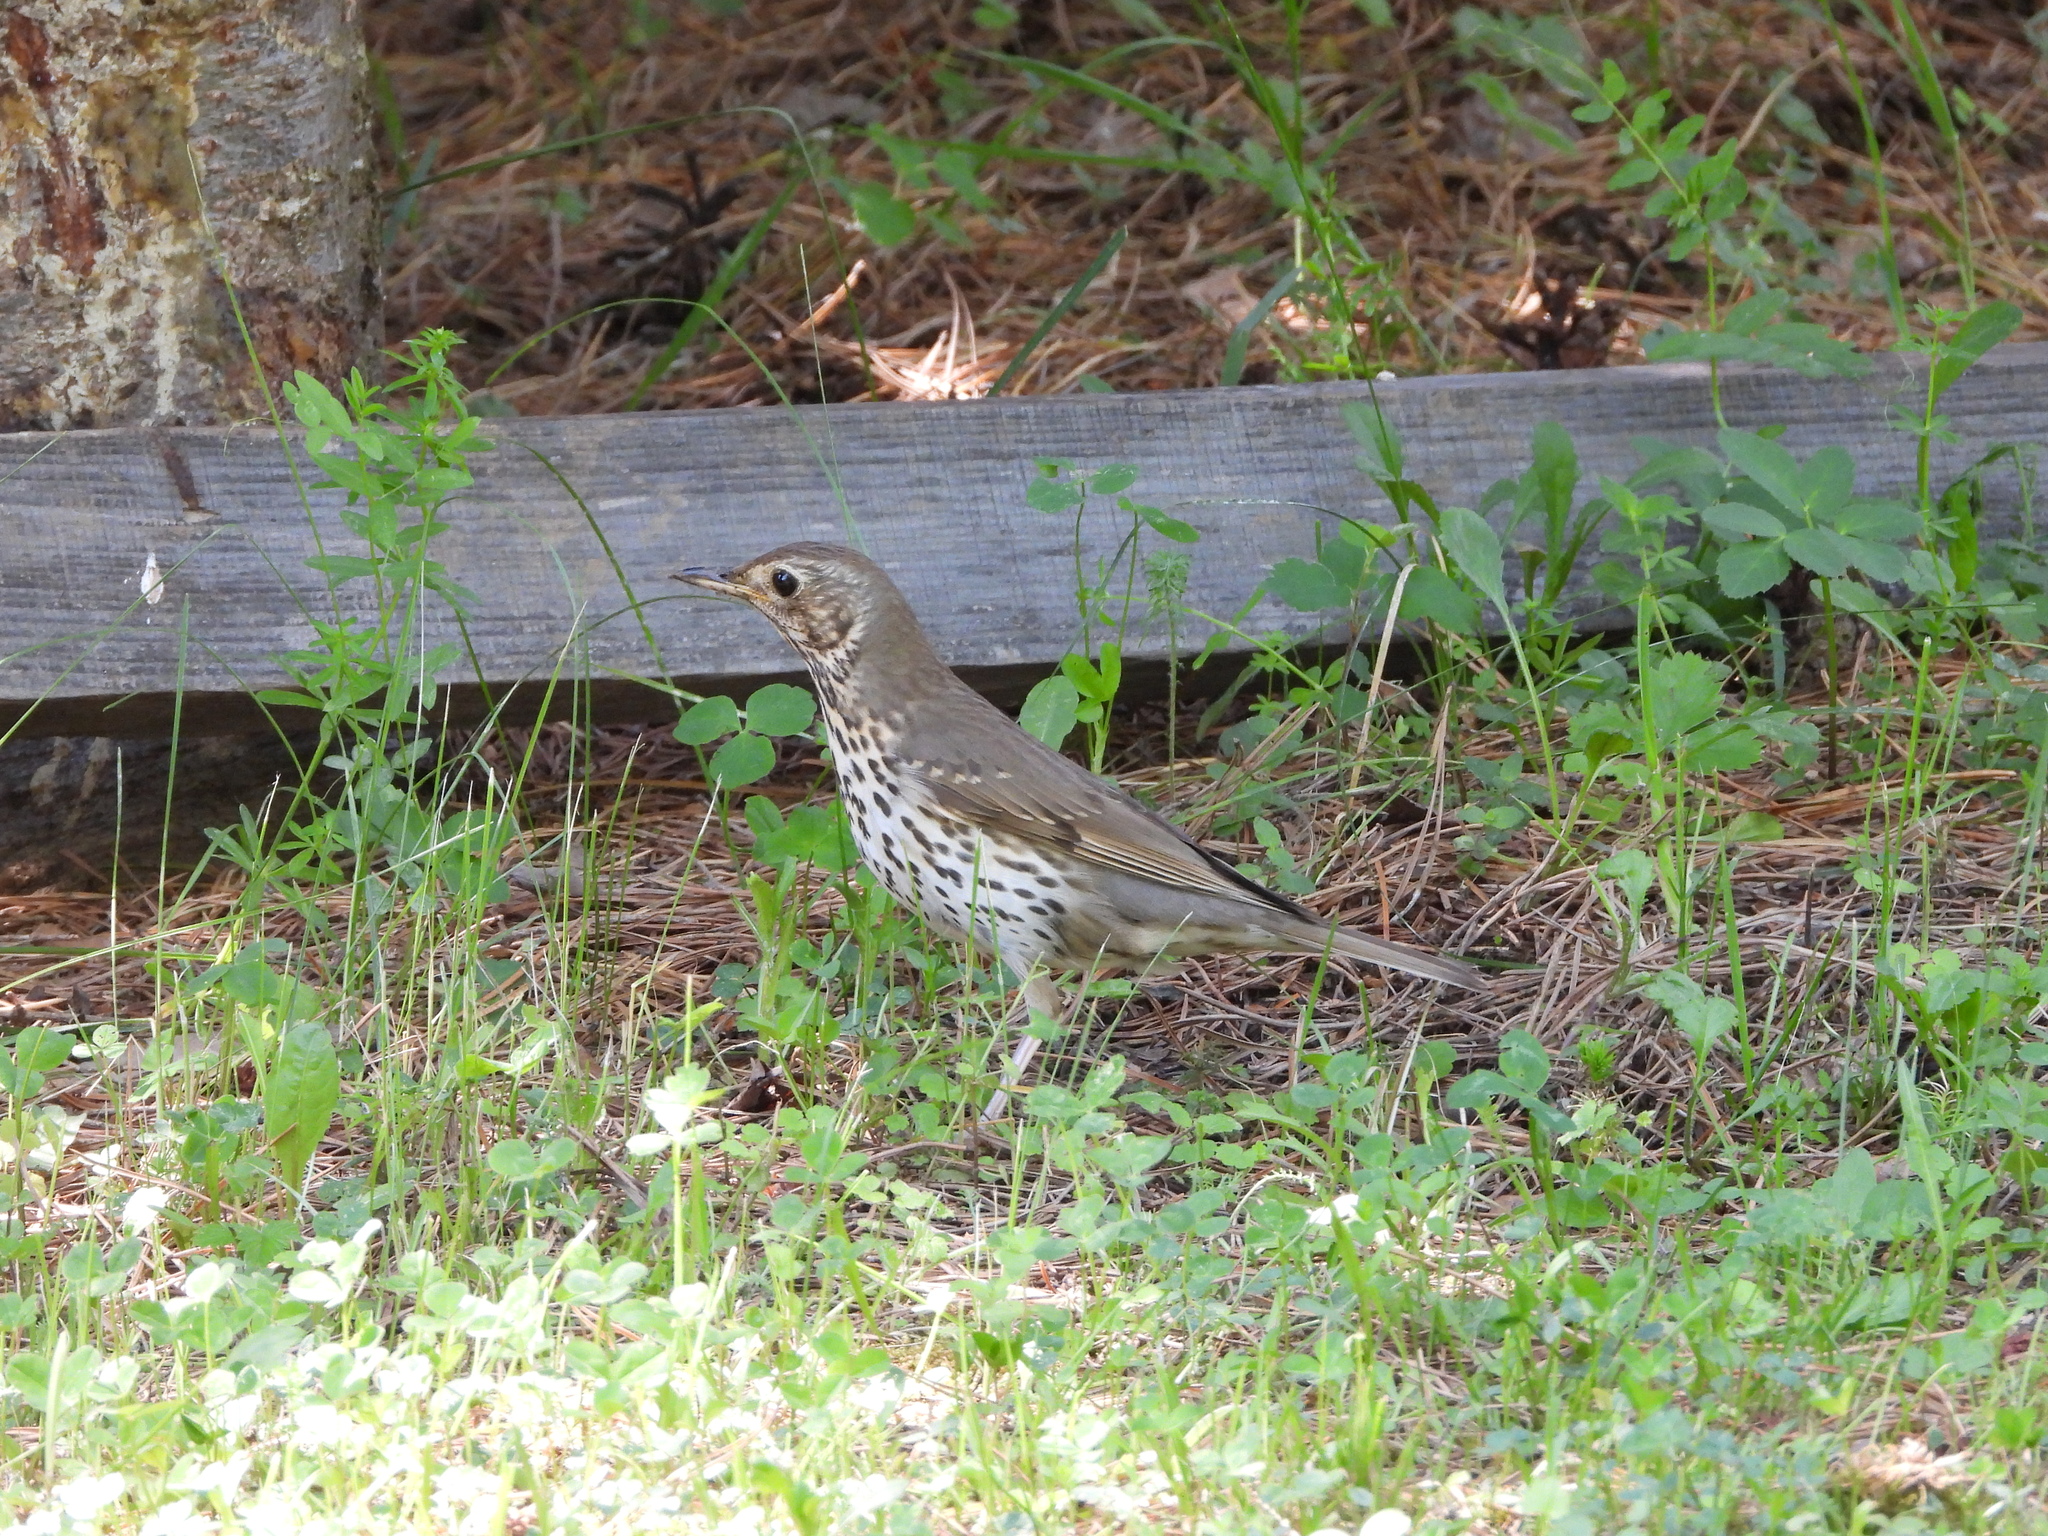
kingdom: Animalia
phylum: Chordata
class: Aves
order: Passeriformes
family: Turdidae
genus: Turdus
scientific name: Turdus philomelos
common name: Song thrush
